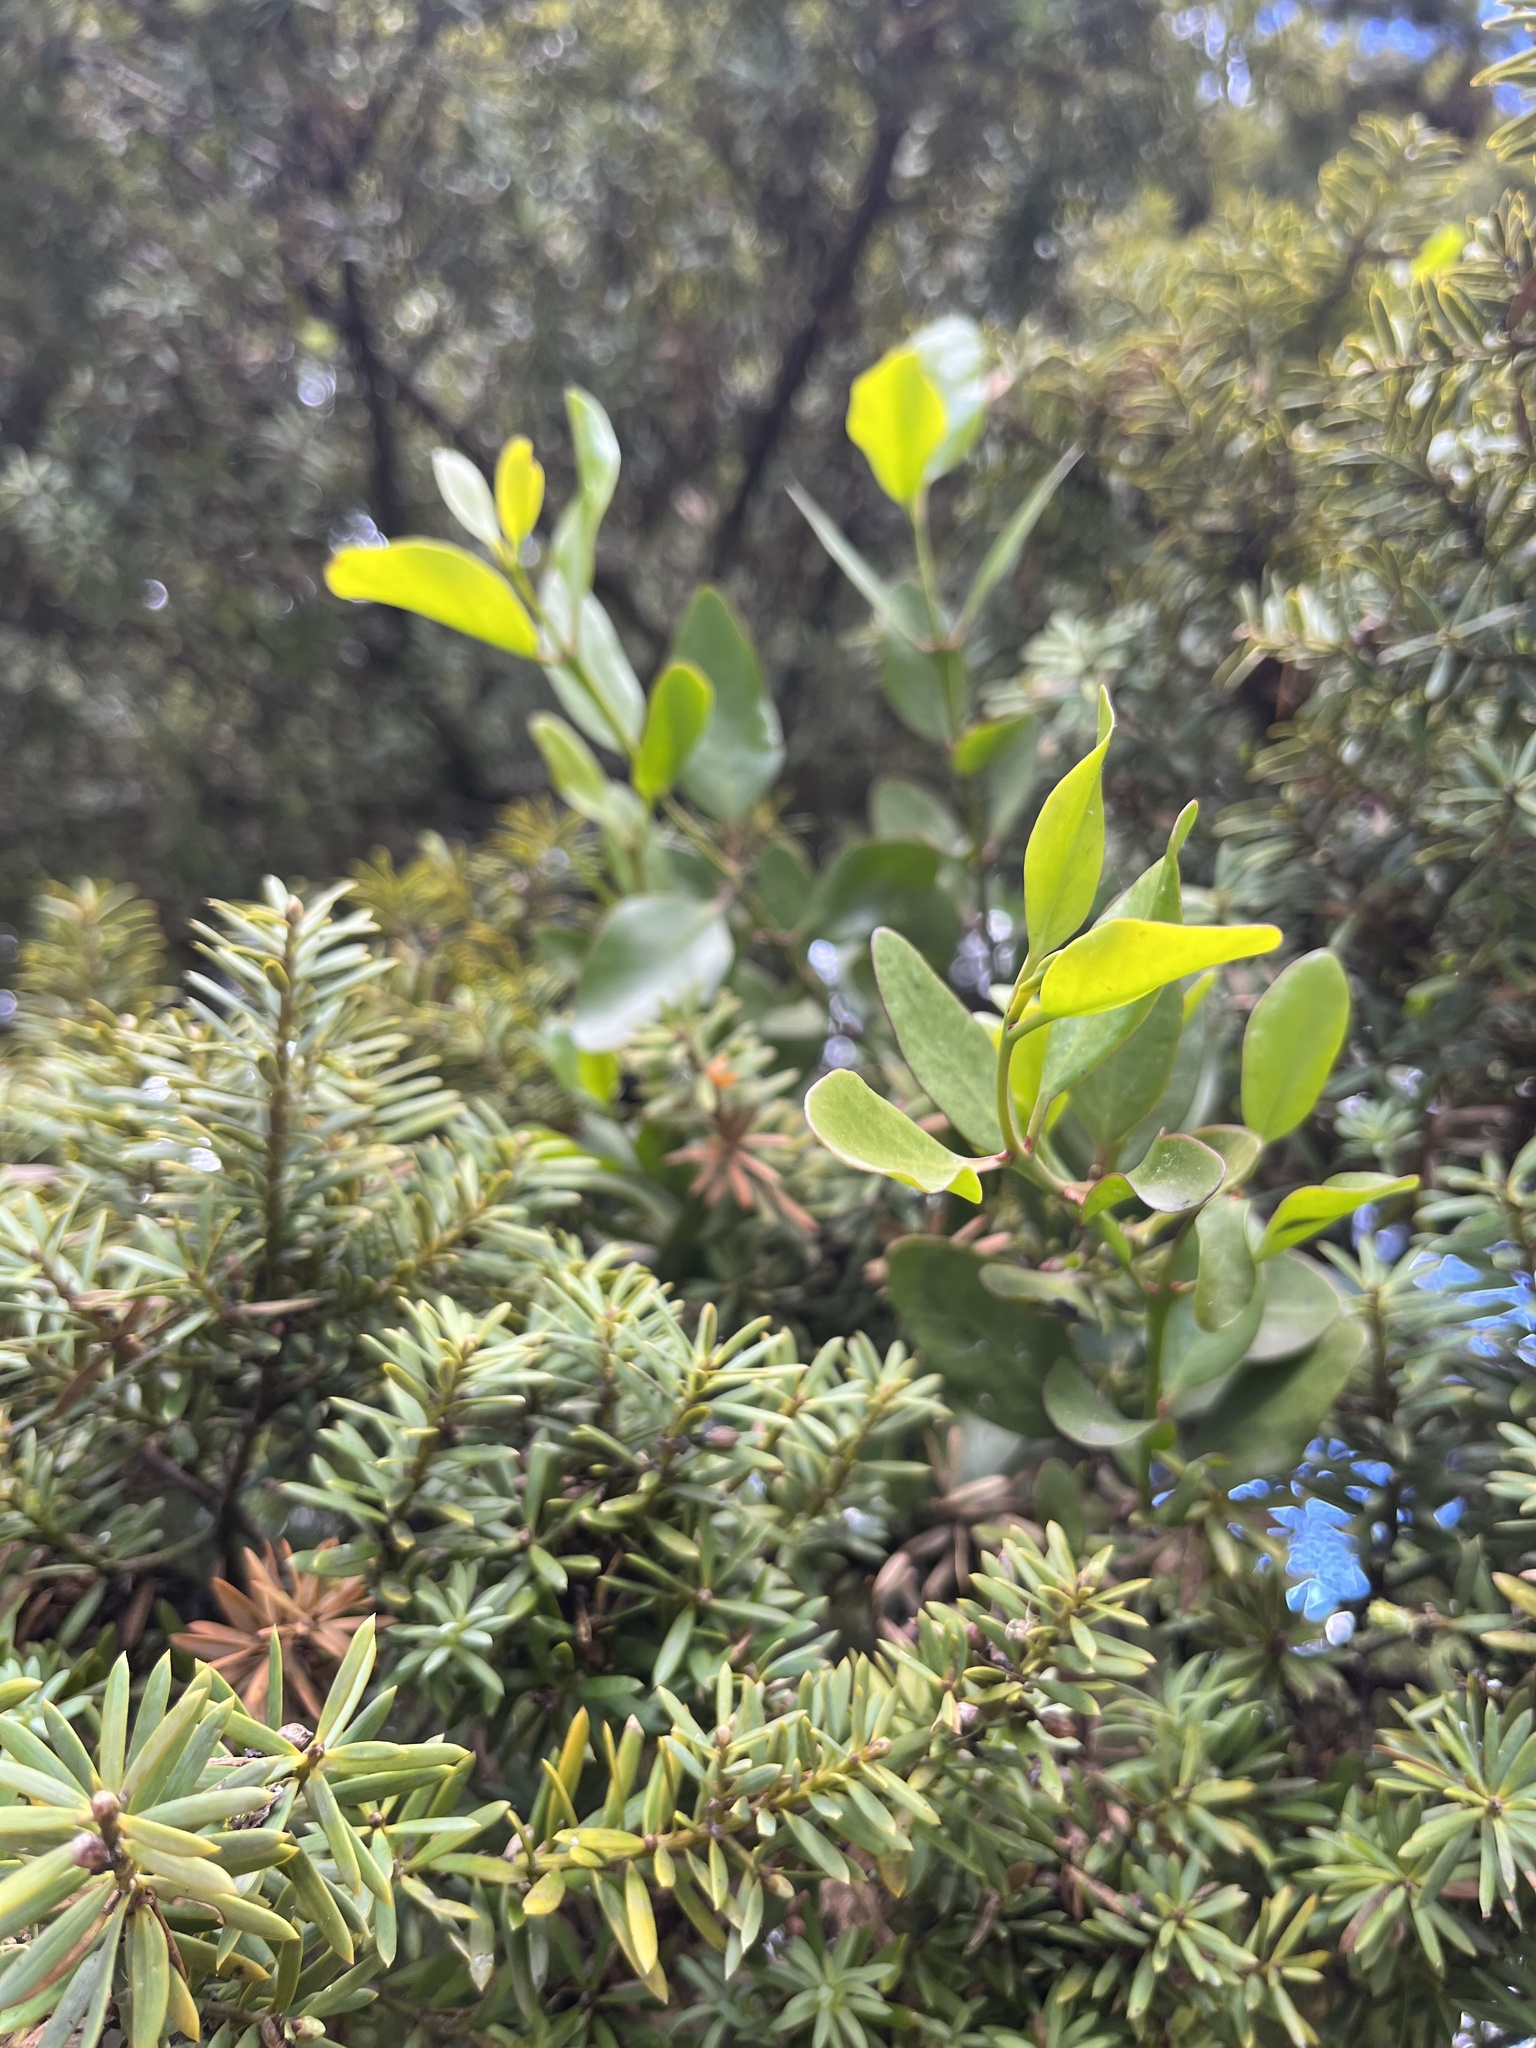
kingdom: Plantae
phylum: Tracheophyta
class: Magnoliopsida
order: Santalales
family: Loranthaceae
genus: Ileostylus
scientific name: Ileostylus micranthus
